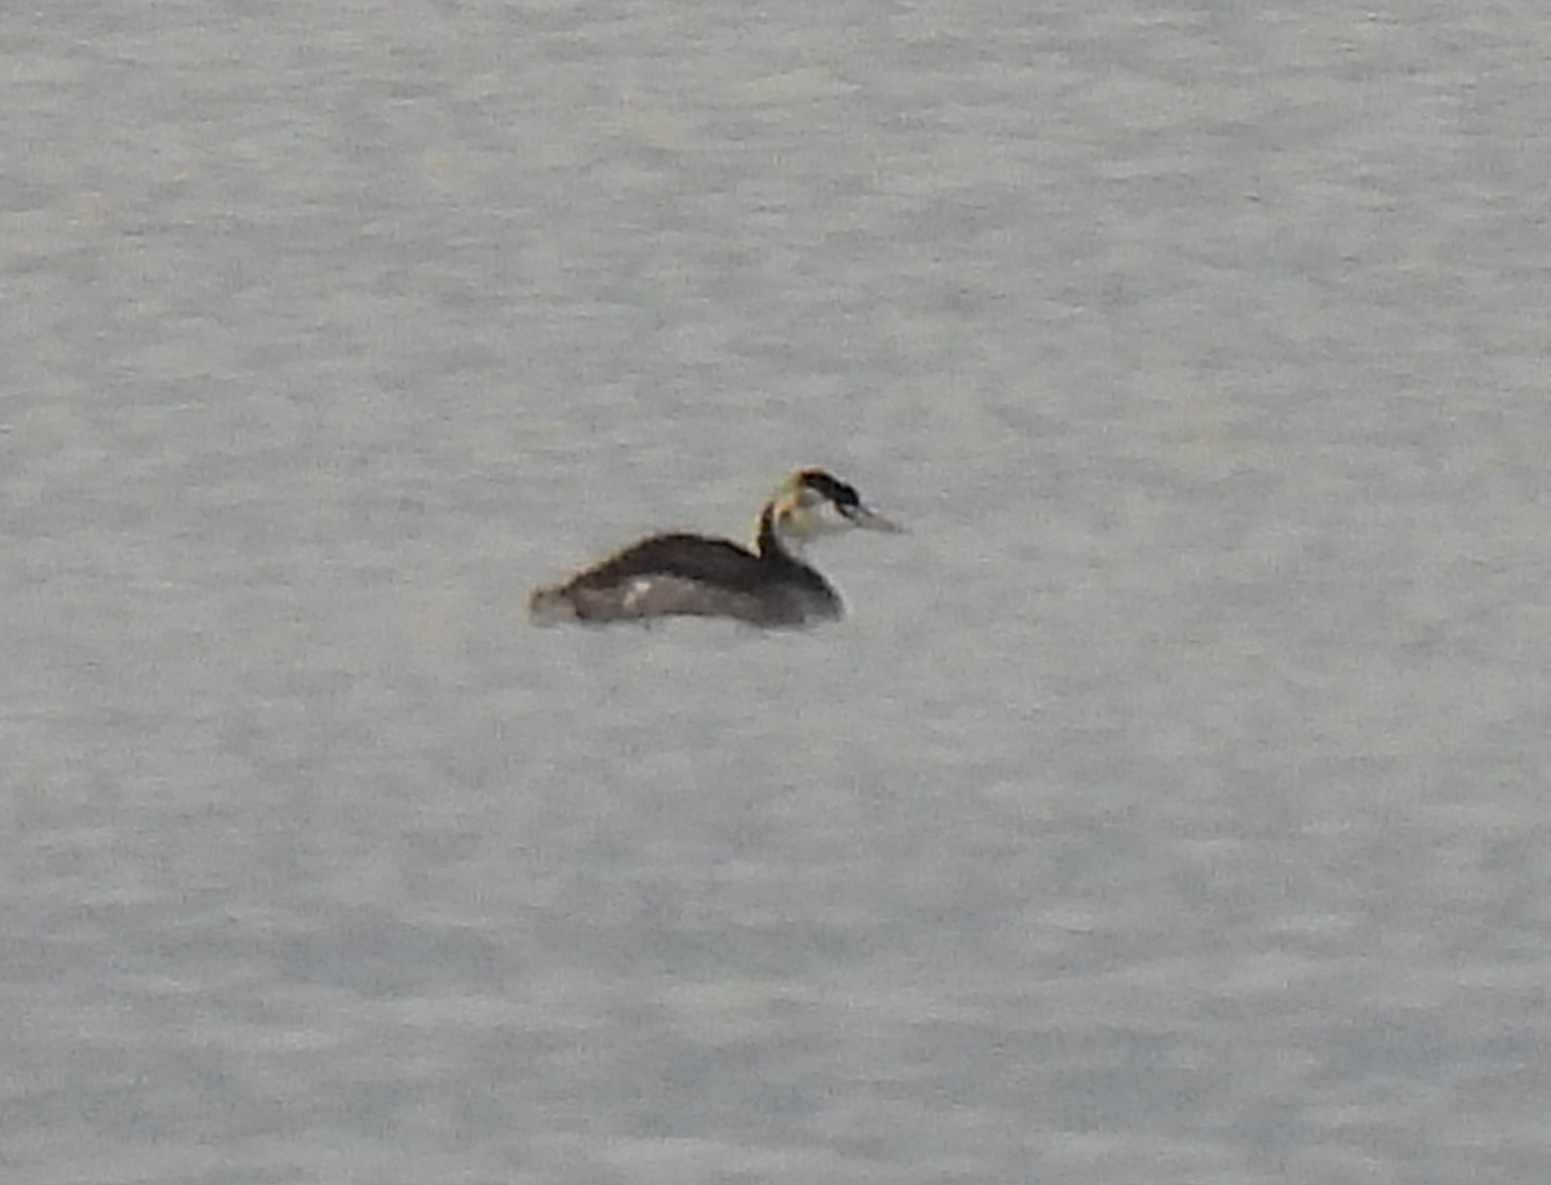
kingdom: Animalia
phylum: Chordata
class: Aves
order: Podicipediformes
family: Podicipedidae
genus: Podiceps
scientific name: Podiceps cristatus
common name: Great crested grebe
